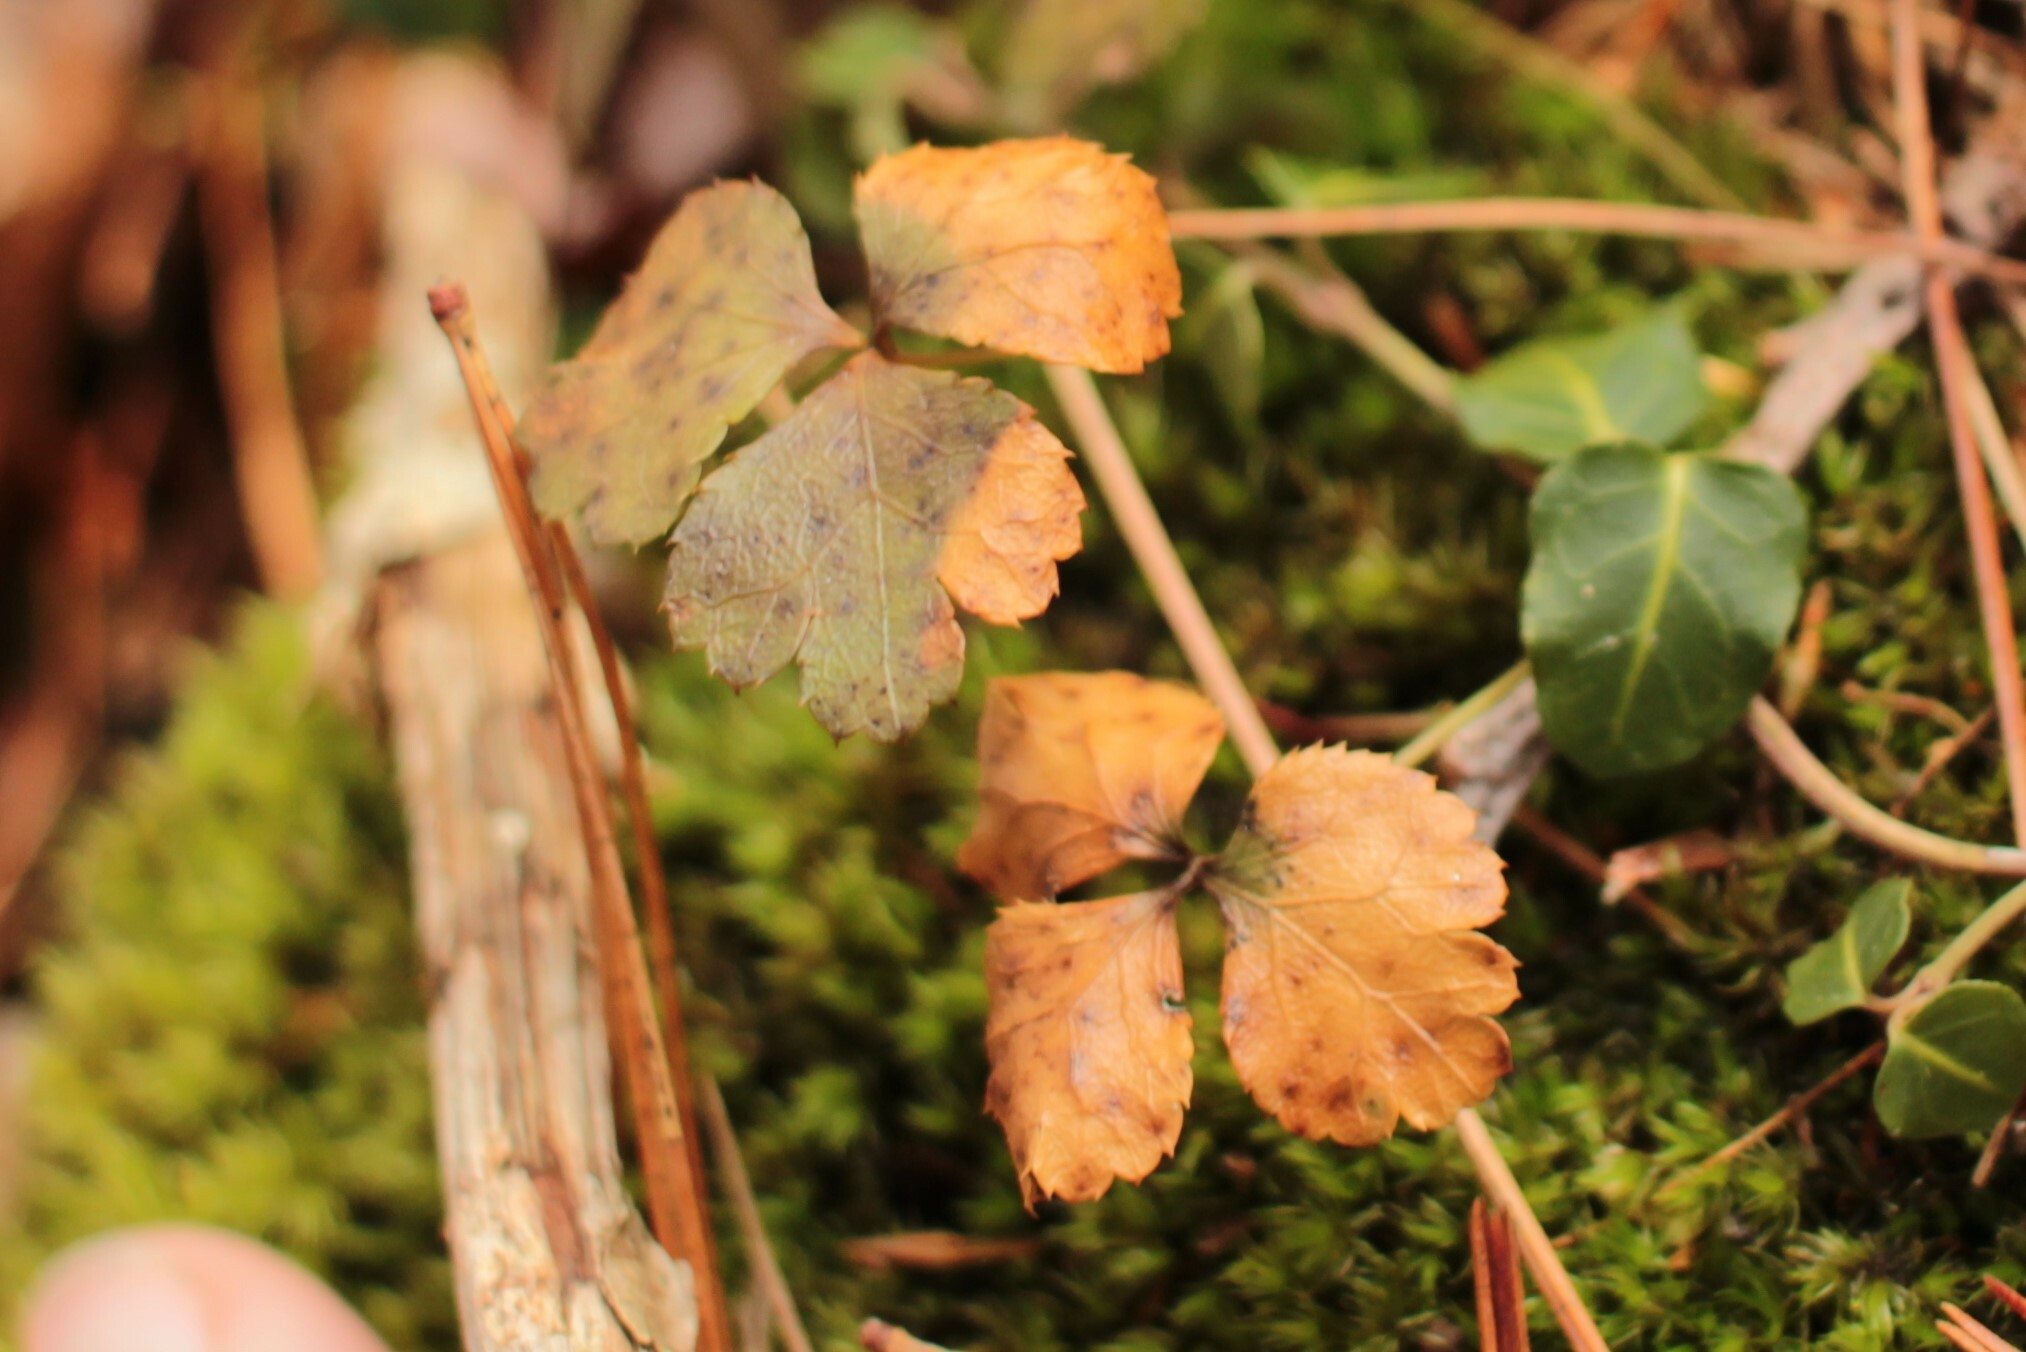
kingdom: Plantae
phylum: Tracheophyta
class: Magnoliopsida
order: Ranunculales
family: Ranunculaceae
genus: Coptis
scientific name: Coptis trifolia
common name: Canker-root
